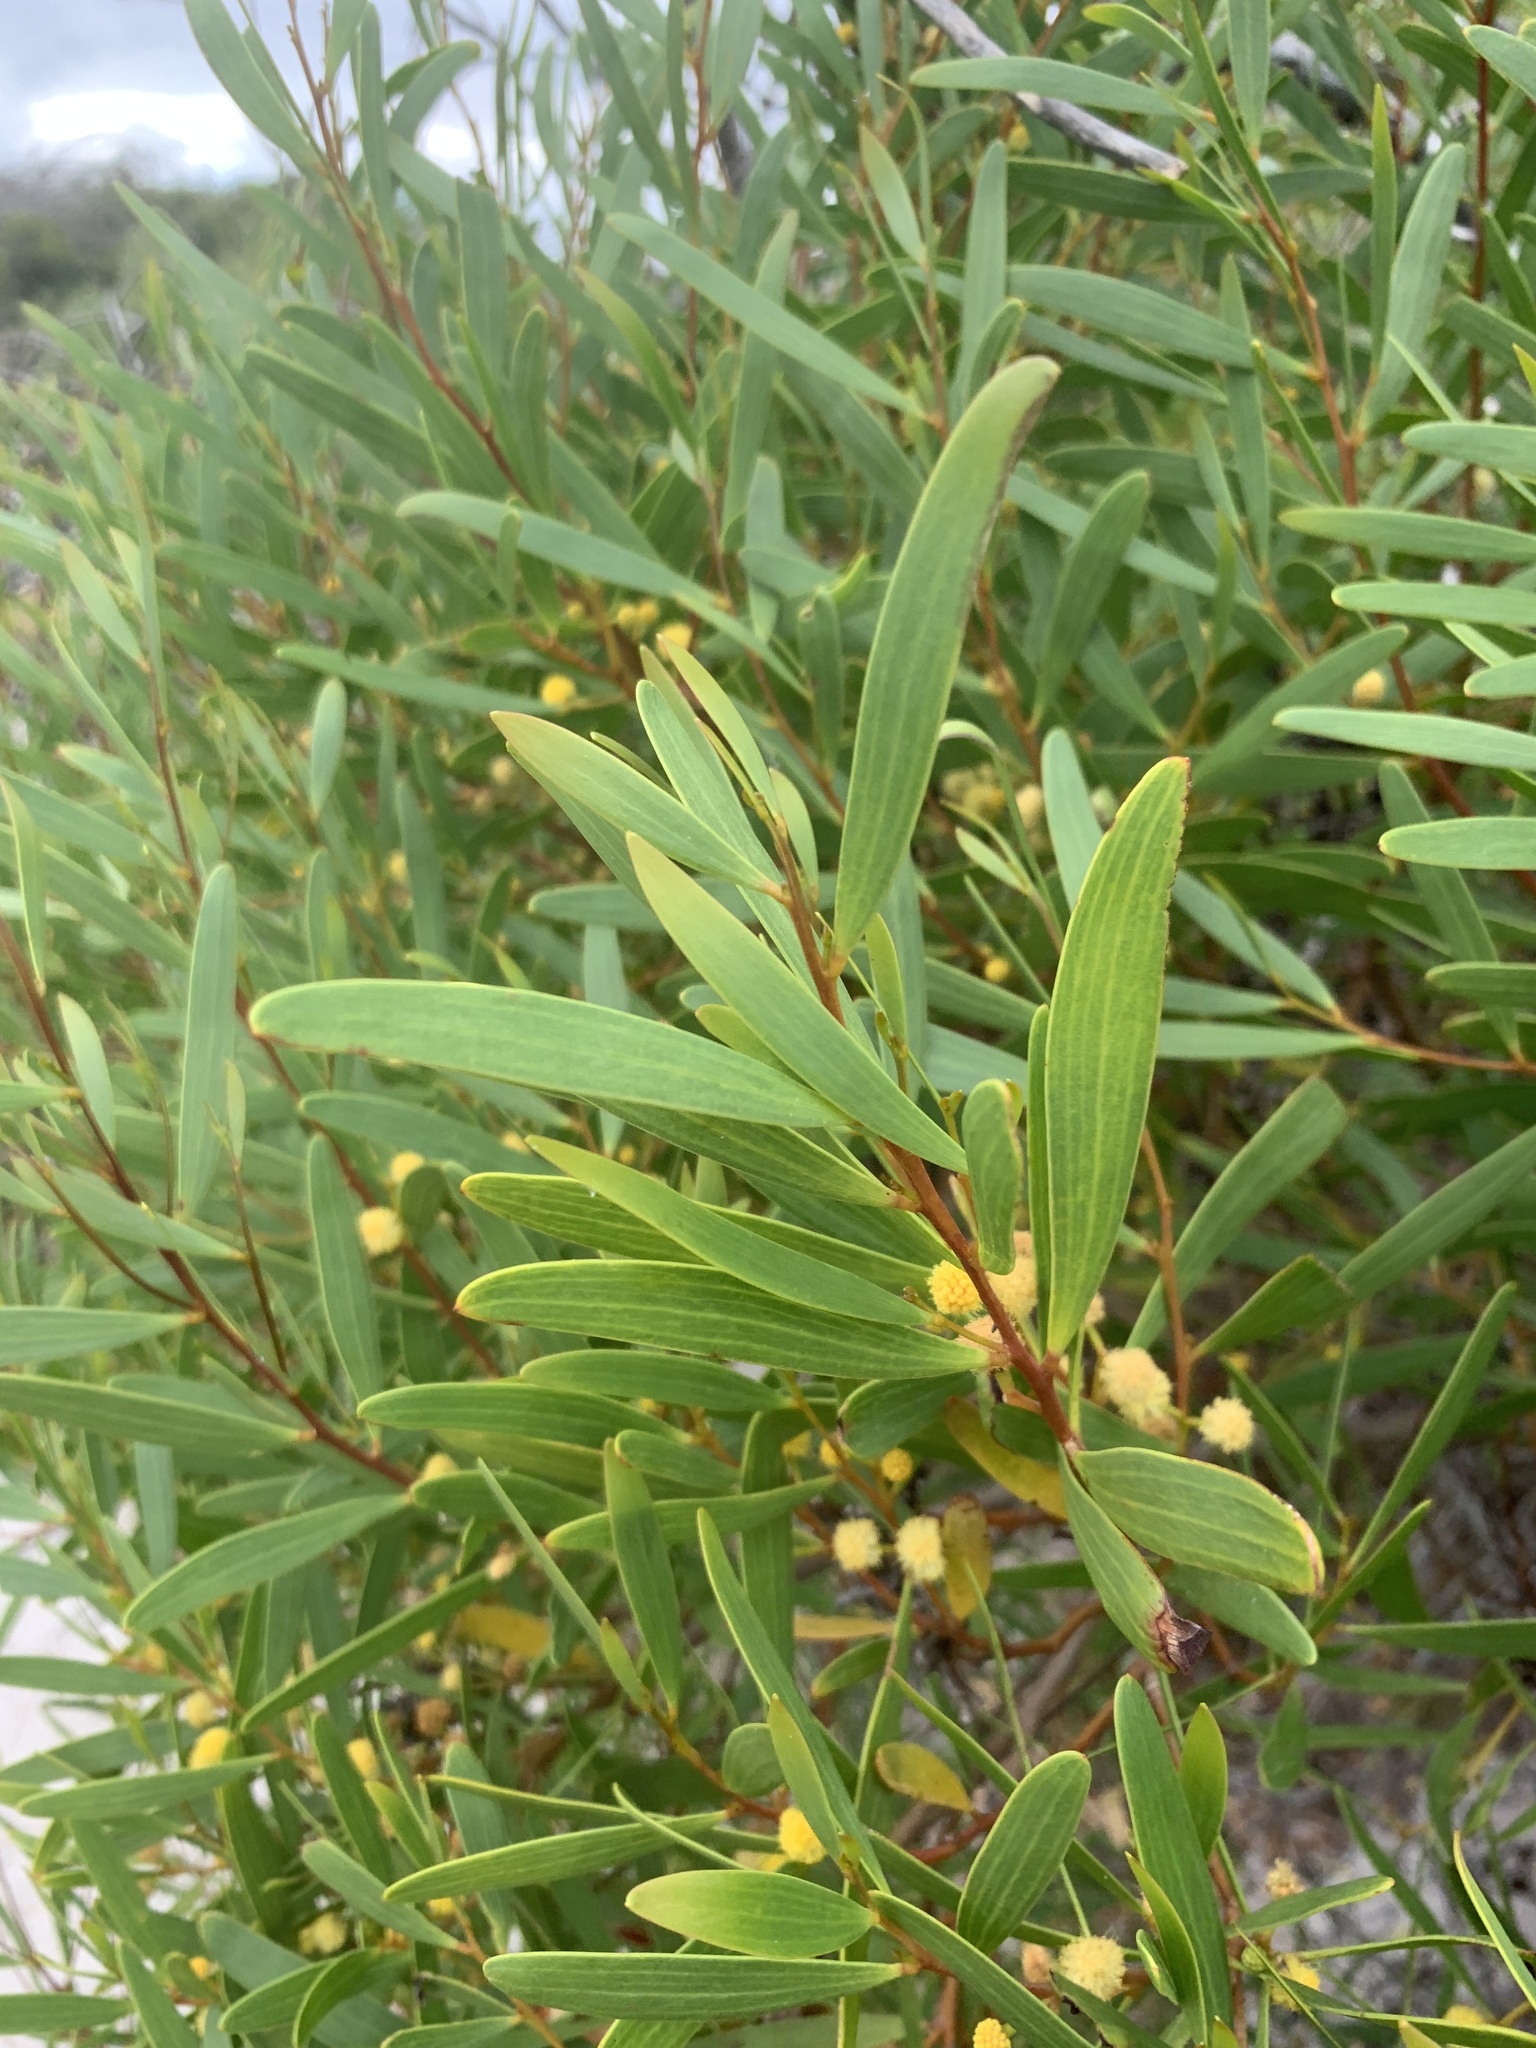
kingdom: Plantae
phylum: Tracheophyta
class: Magnoliopsida
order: Fabales
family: Fabaceae
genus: Acacia
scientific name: Acacia cyclops
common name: Coastal wattle
